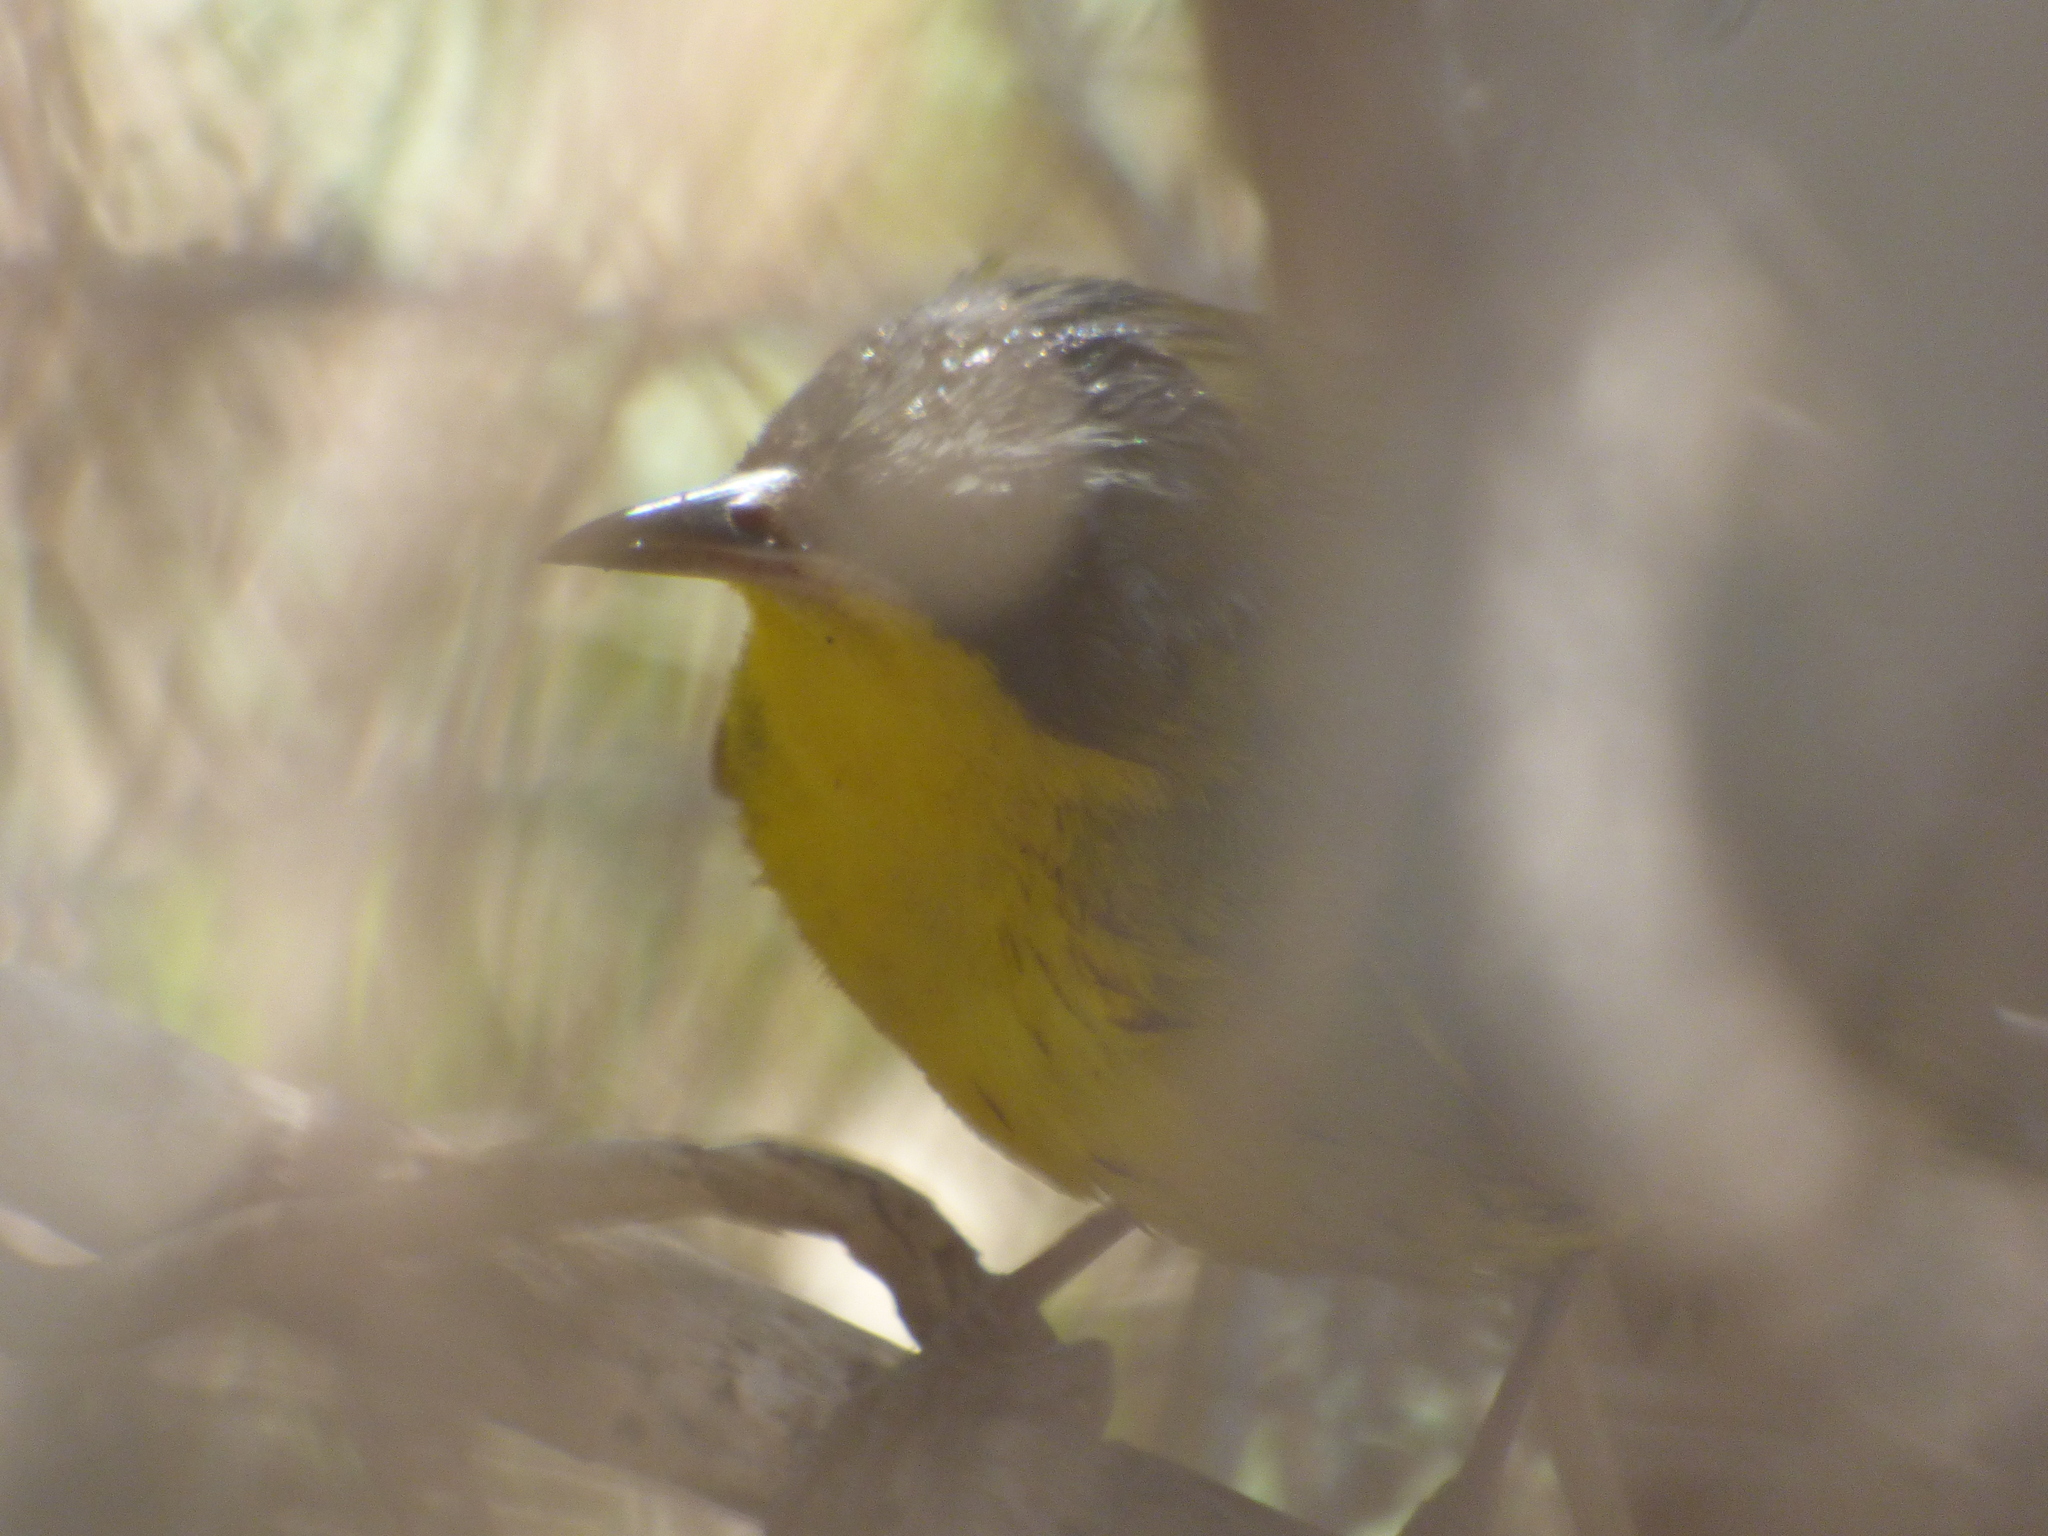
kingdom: Animalia
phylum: Chordata
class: Aves
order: Passeriformes
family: Parulidae
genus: Geothlypis
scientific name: Geothlypis velata
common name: Southern yellowthroat
